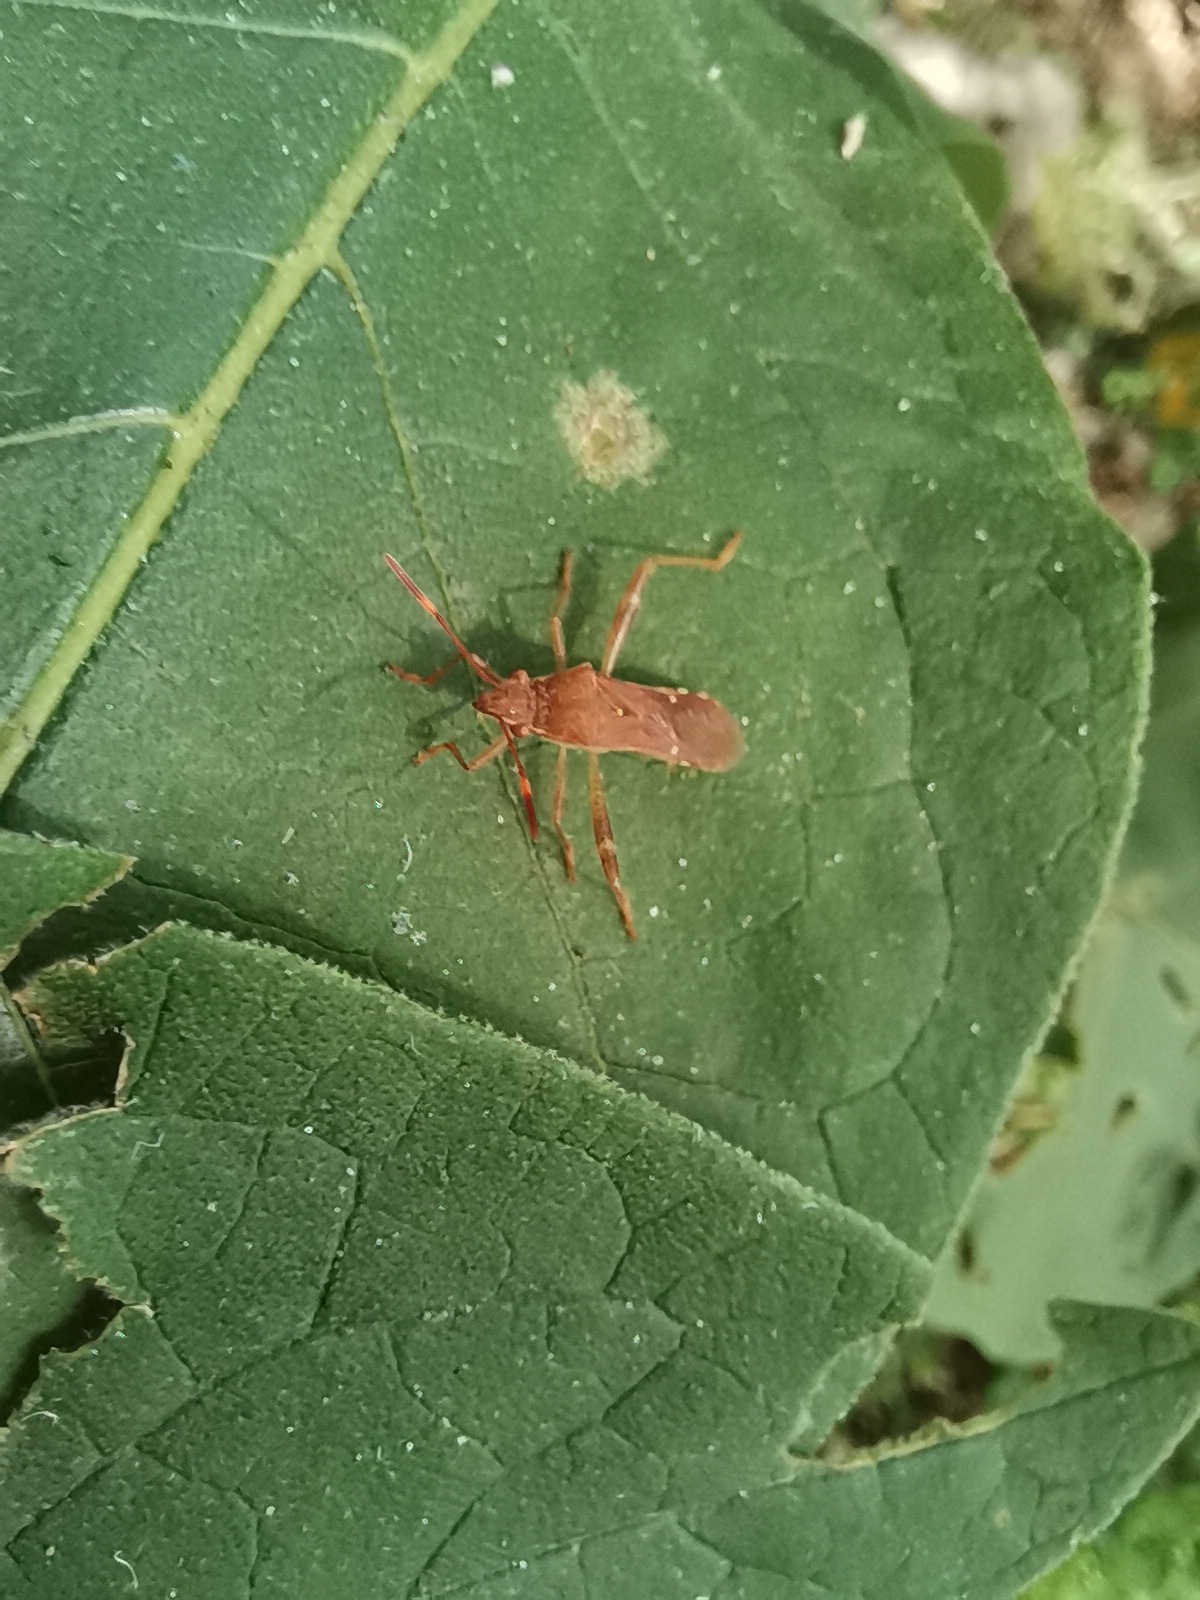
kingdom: Animalia
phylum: Arthropoda
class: Insecta
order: Hemiptera
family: Alydidae
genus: Burtinus
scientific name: Burtinus notatipennis
